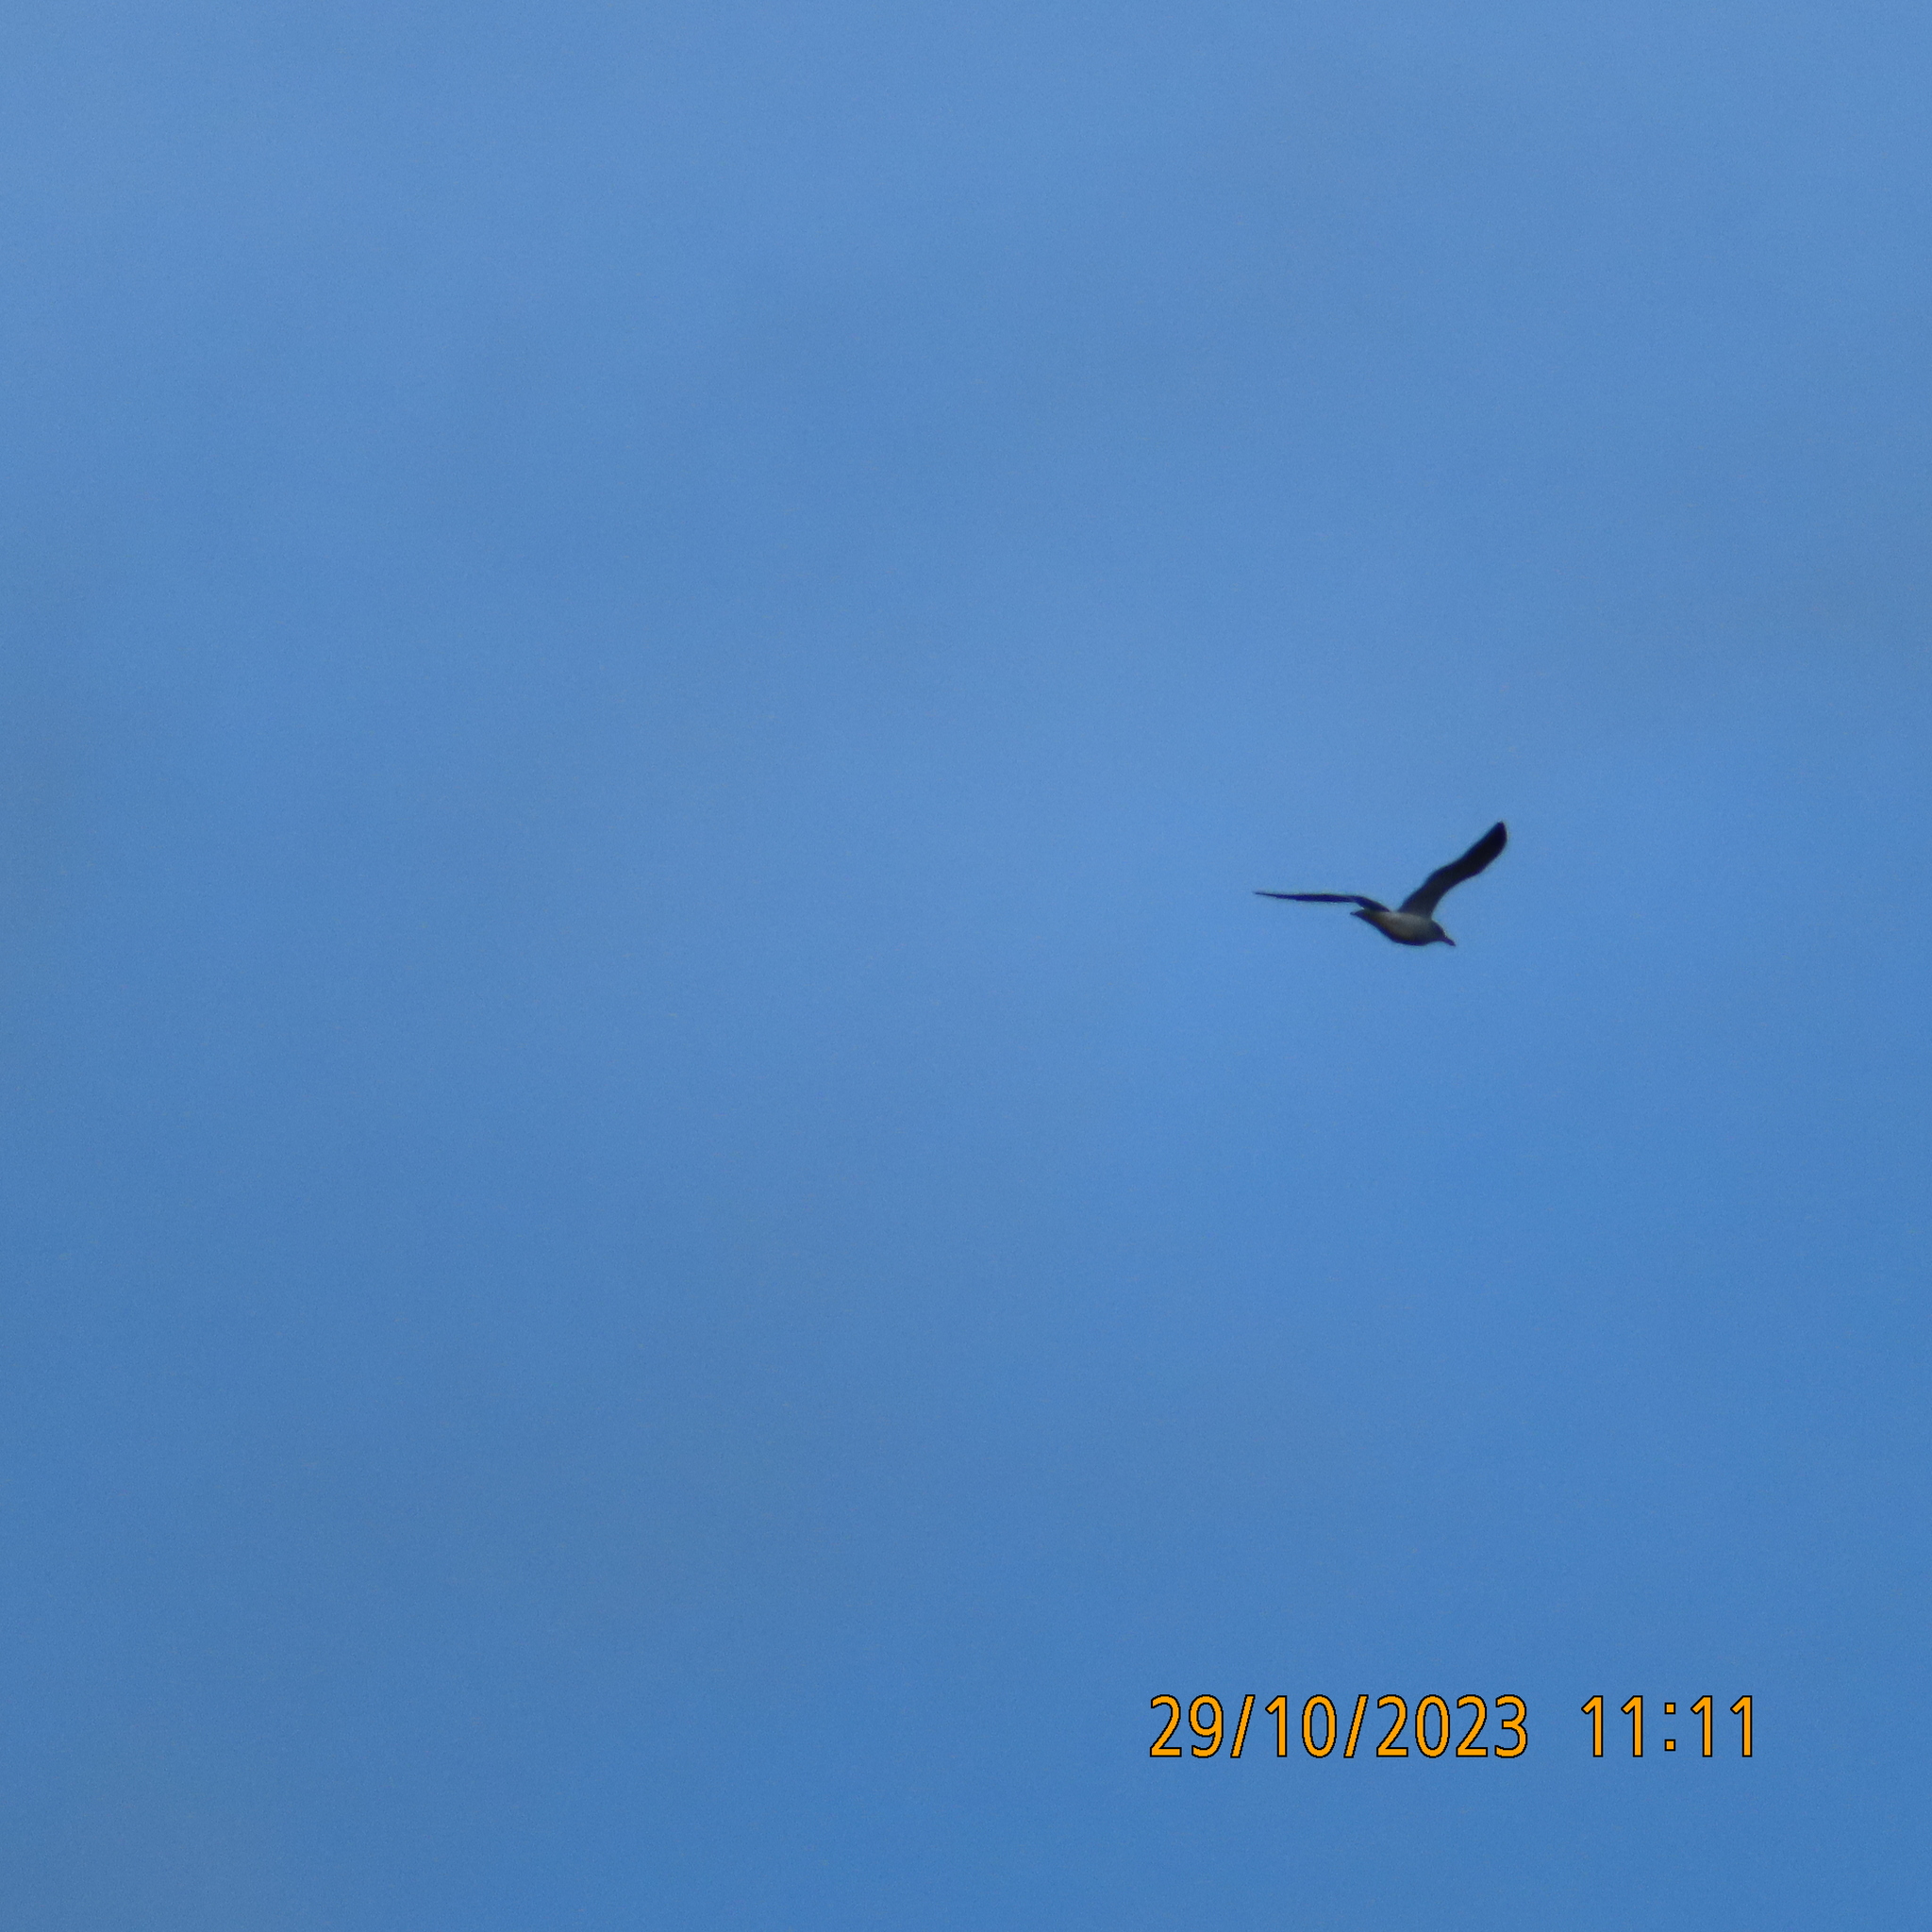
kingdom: Animalia
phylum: Chordata
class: Aves
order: Charadriiformes
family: Laridae
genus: Chroicocephalus
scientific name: Chroicocephalus ridibundus
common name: Black-headed gull
